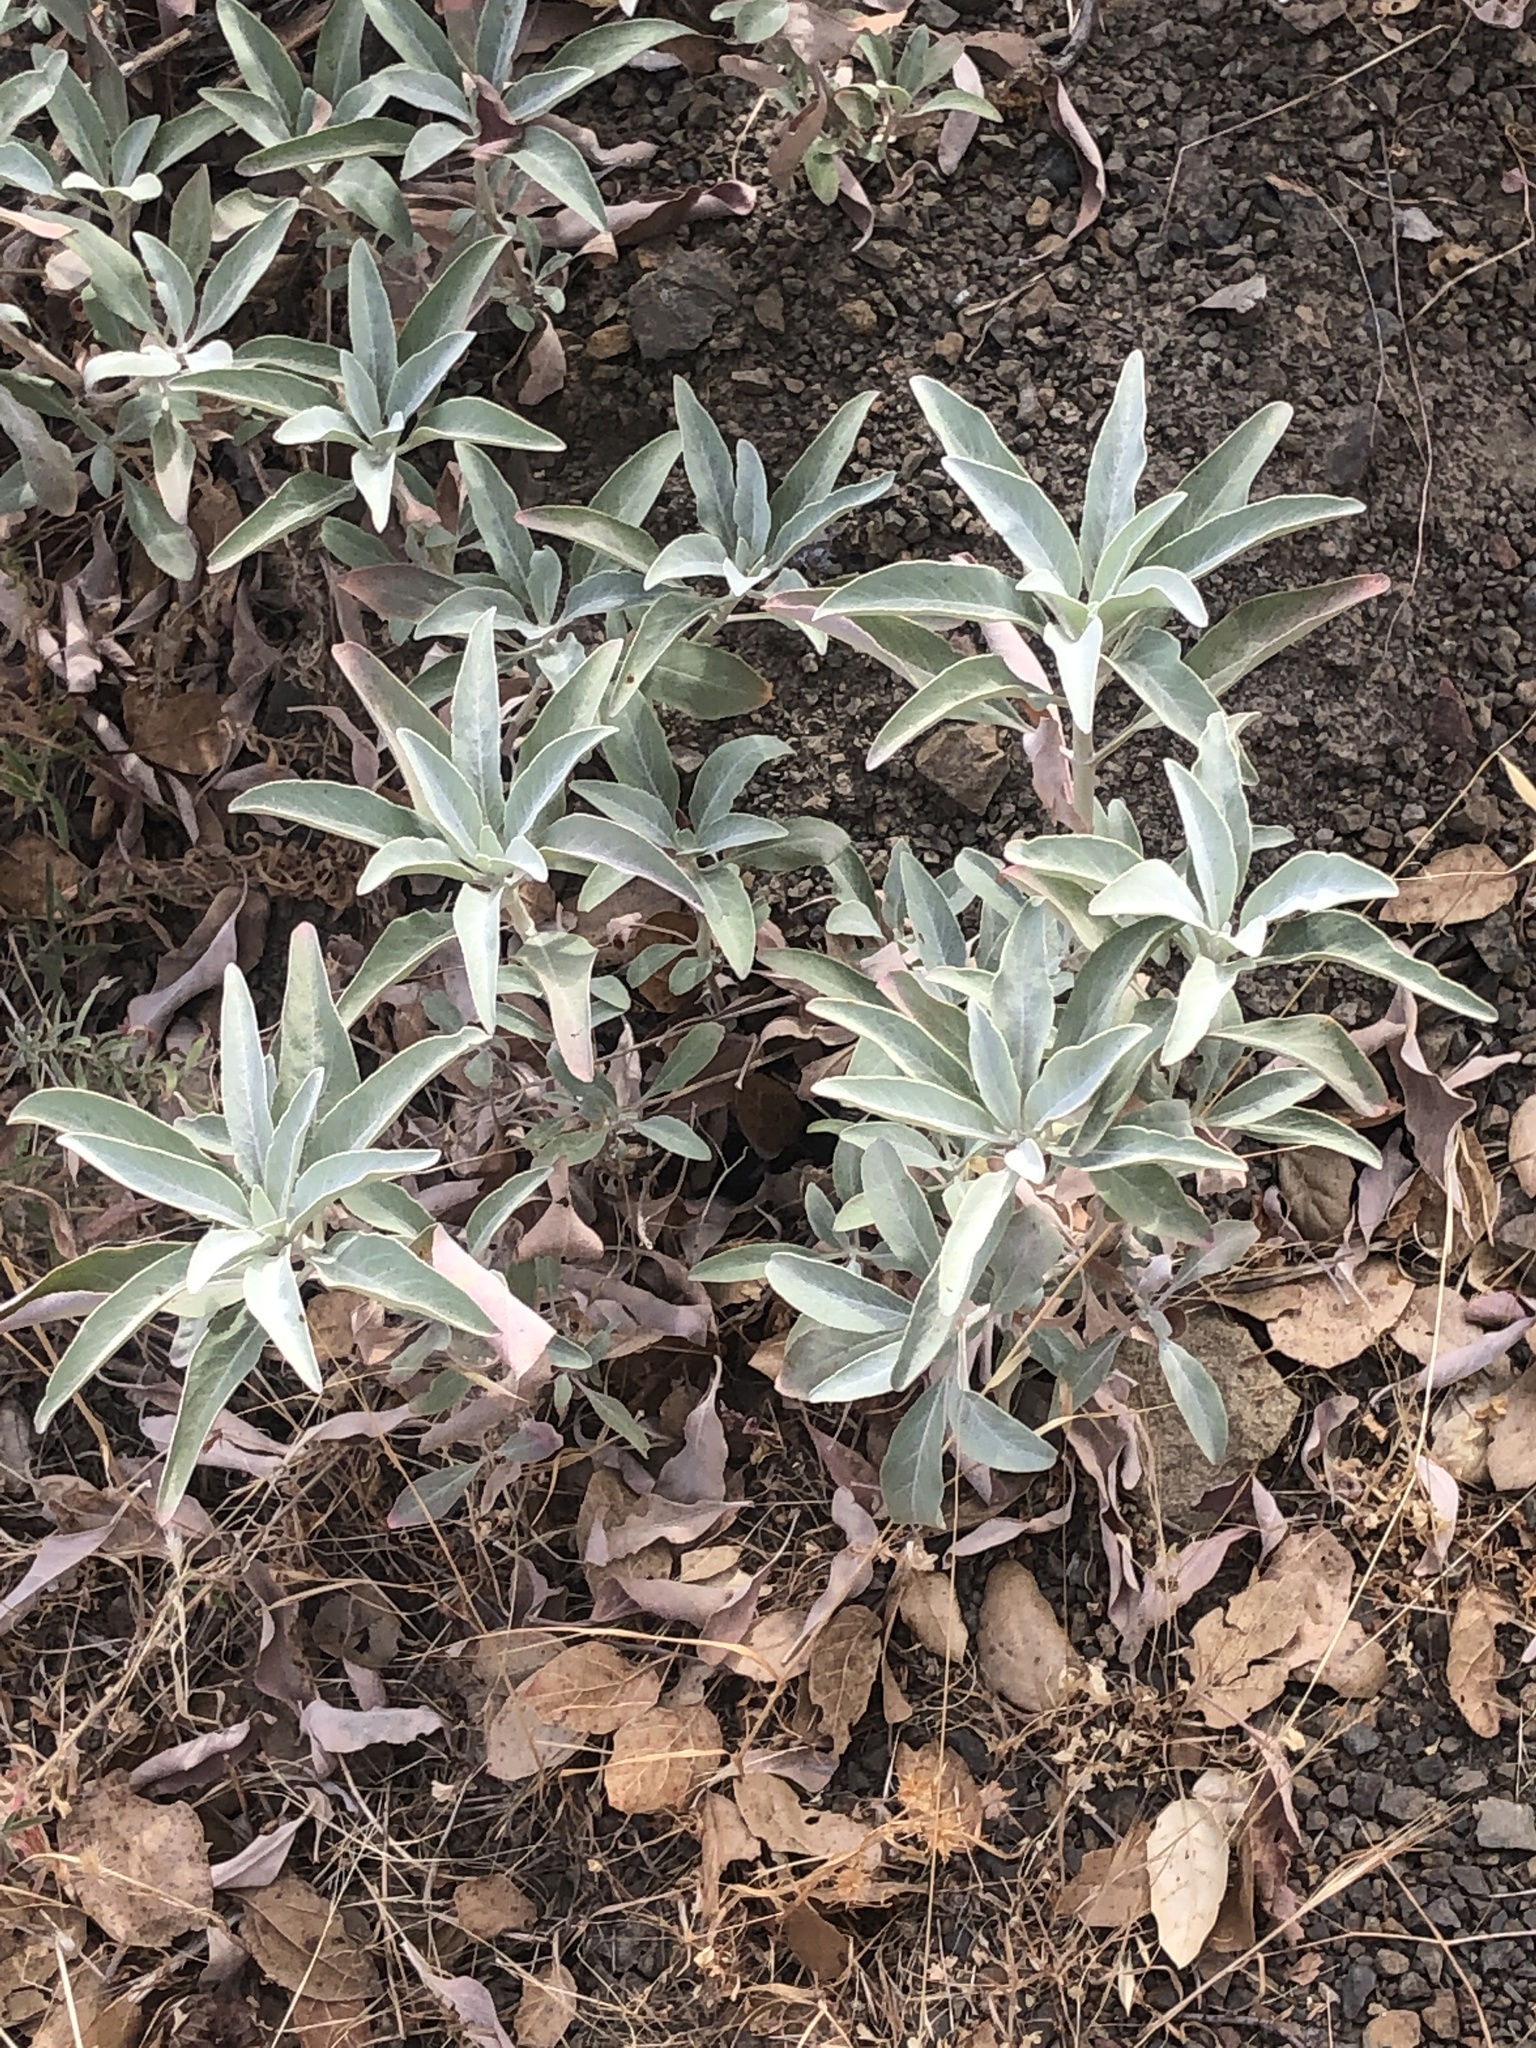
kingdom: Plantae
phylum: Tracheophyta
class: Magnoliopsida
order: Lamiales
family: Lamiaceae
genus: Salvia
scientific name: Salvia apiana
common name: White sage
